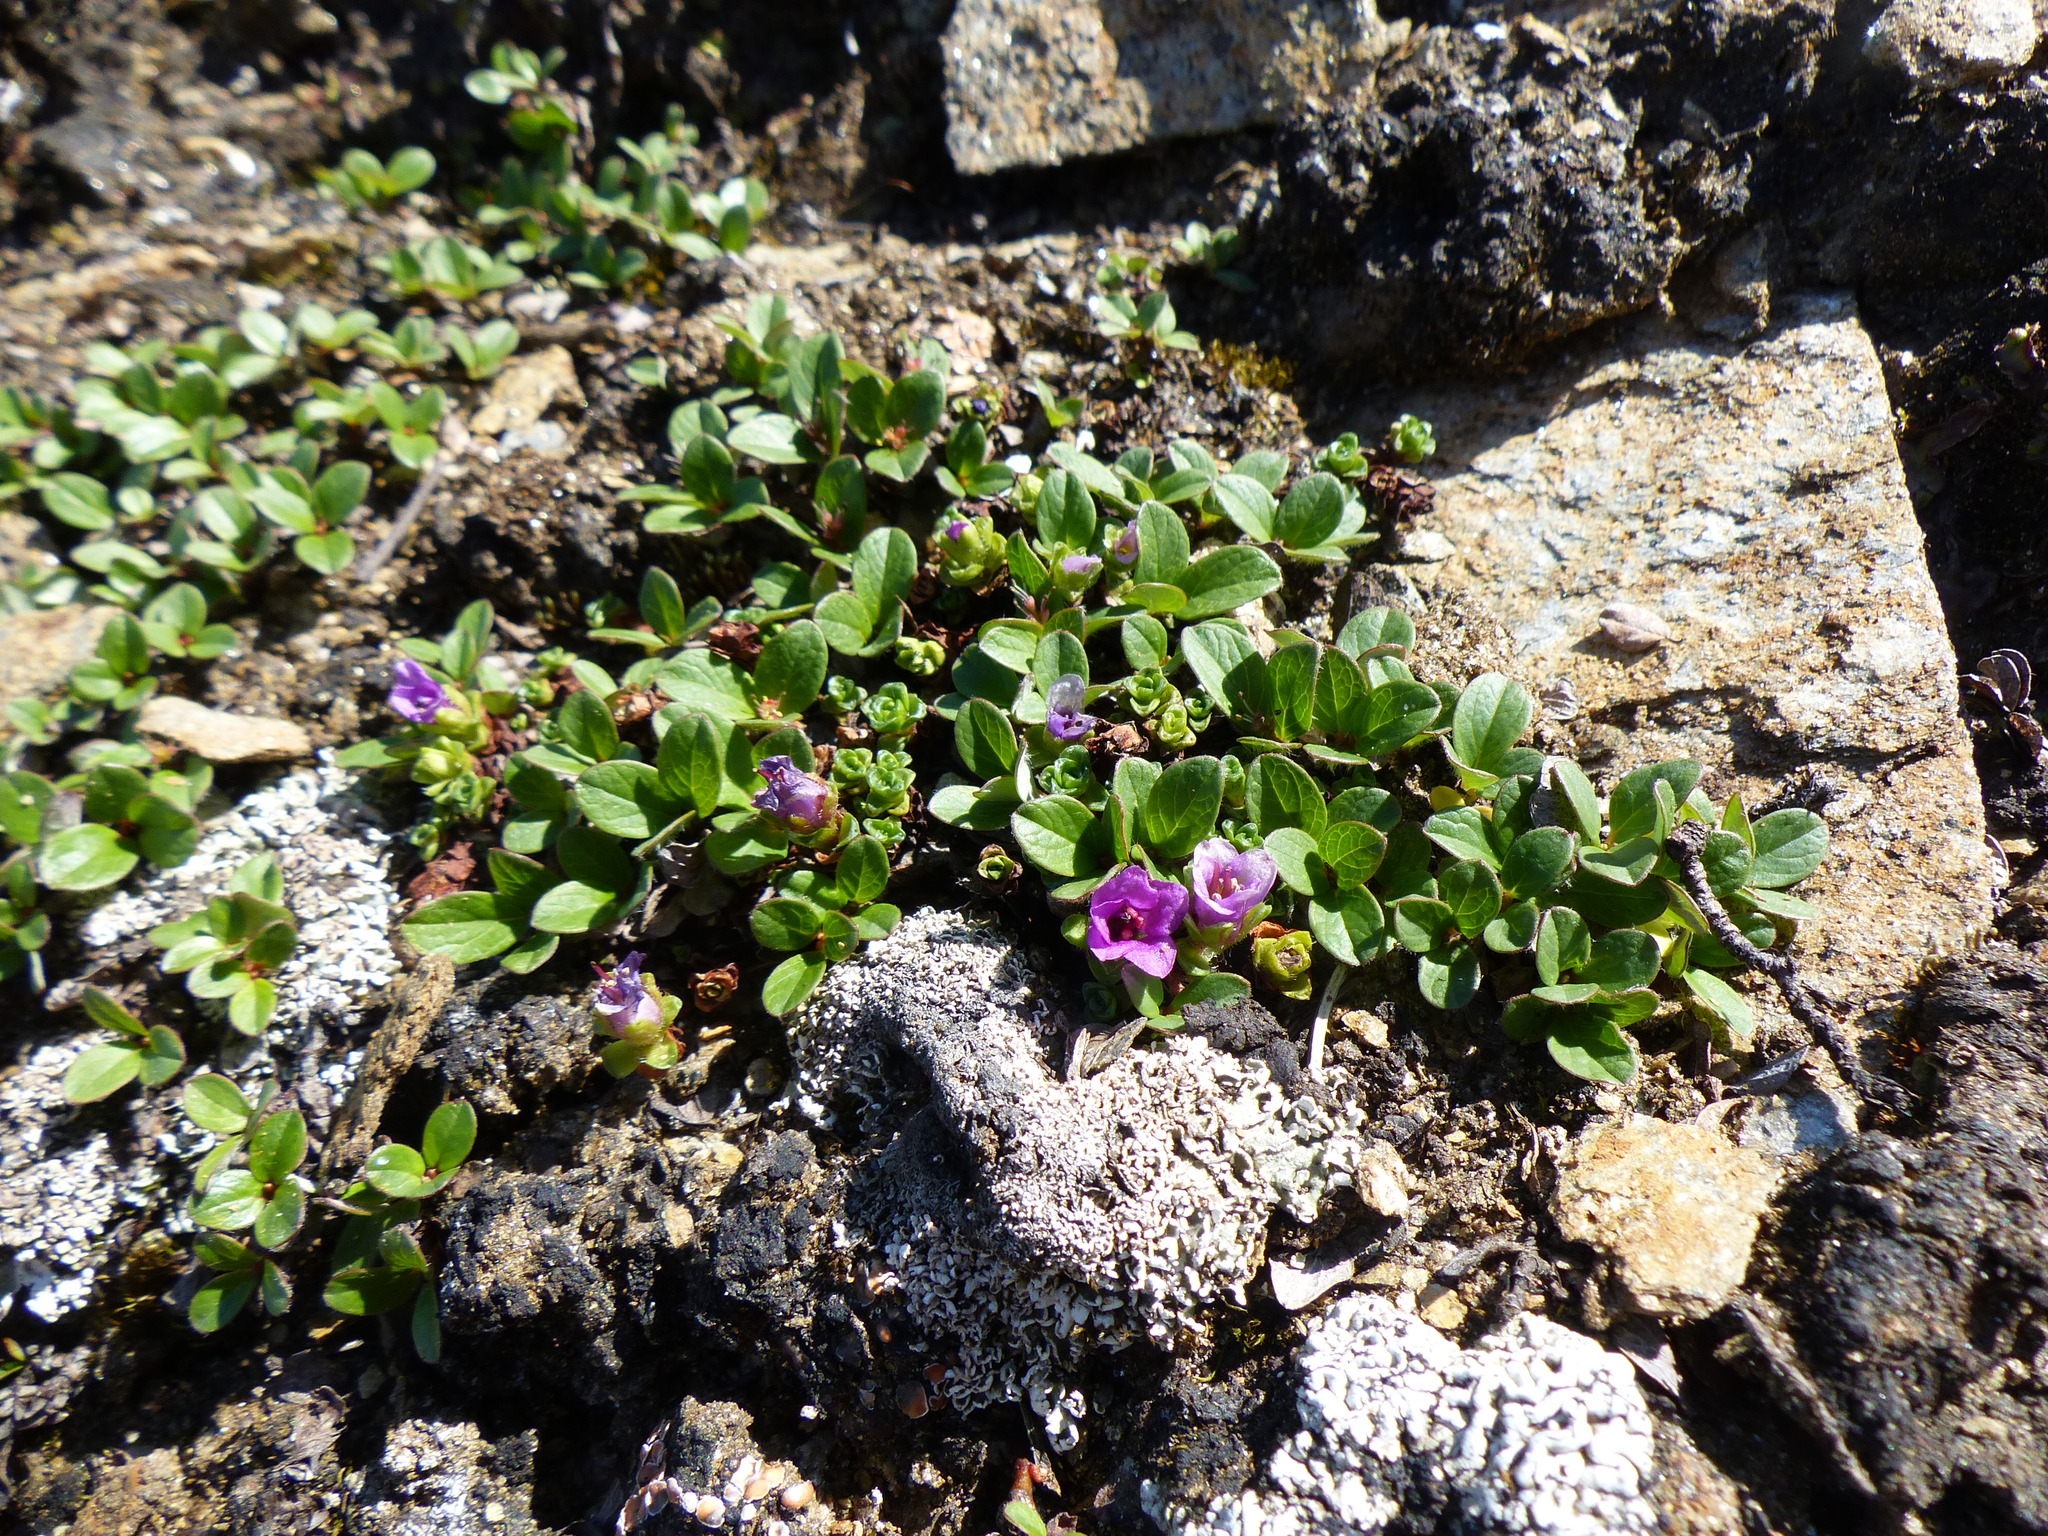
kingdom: Plantae
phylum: Tracheophyta
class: Magnoliopsida
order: Saxifragales
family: Saxifragaceae
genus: Saxifraga
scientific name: Saxifraga oppositifolia
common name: Purple saxifrage
